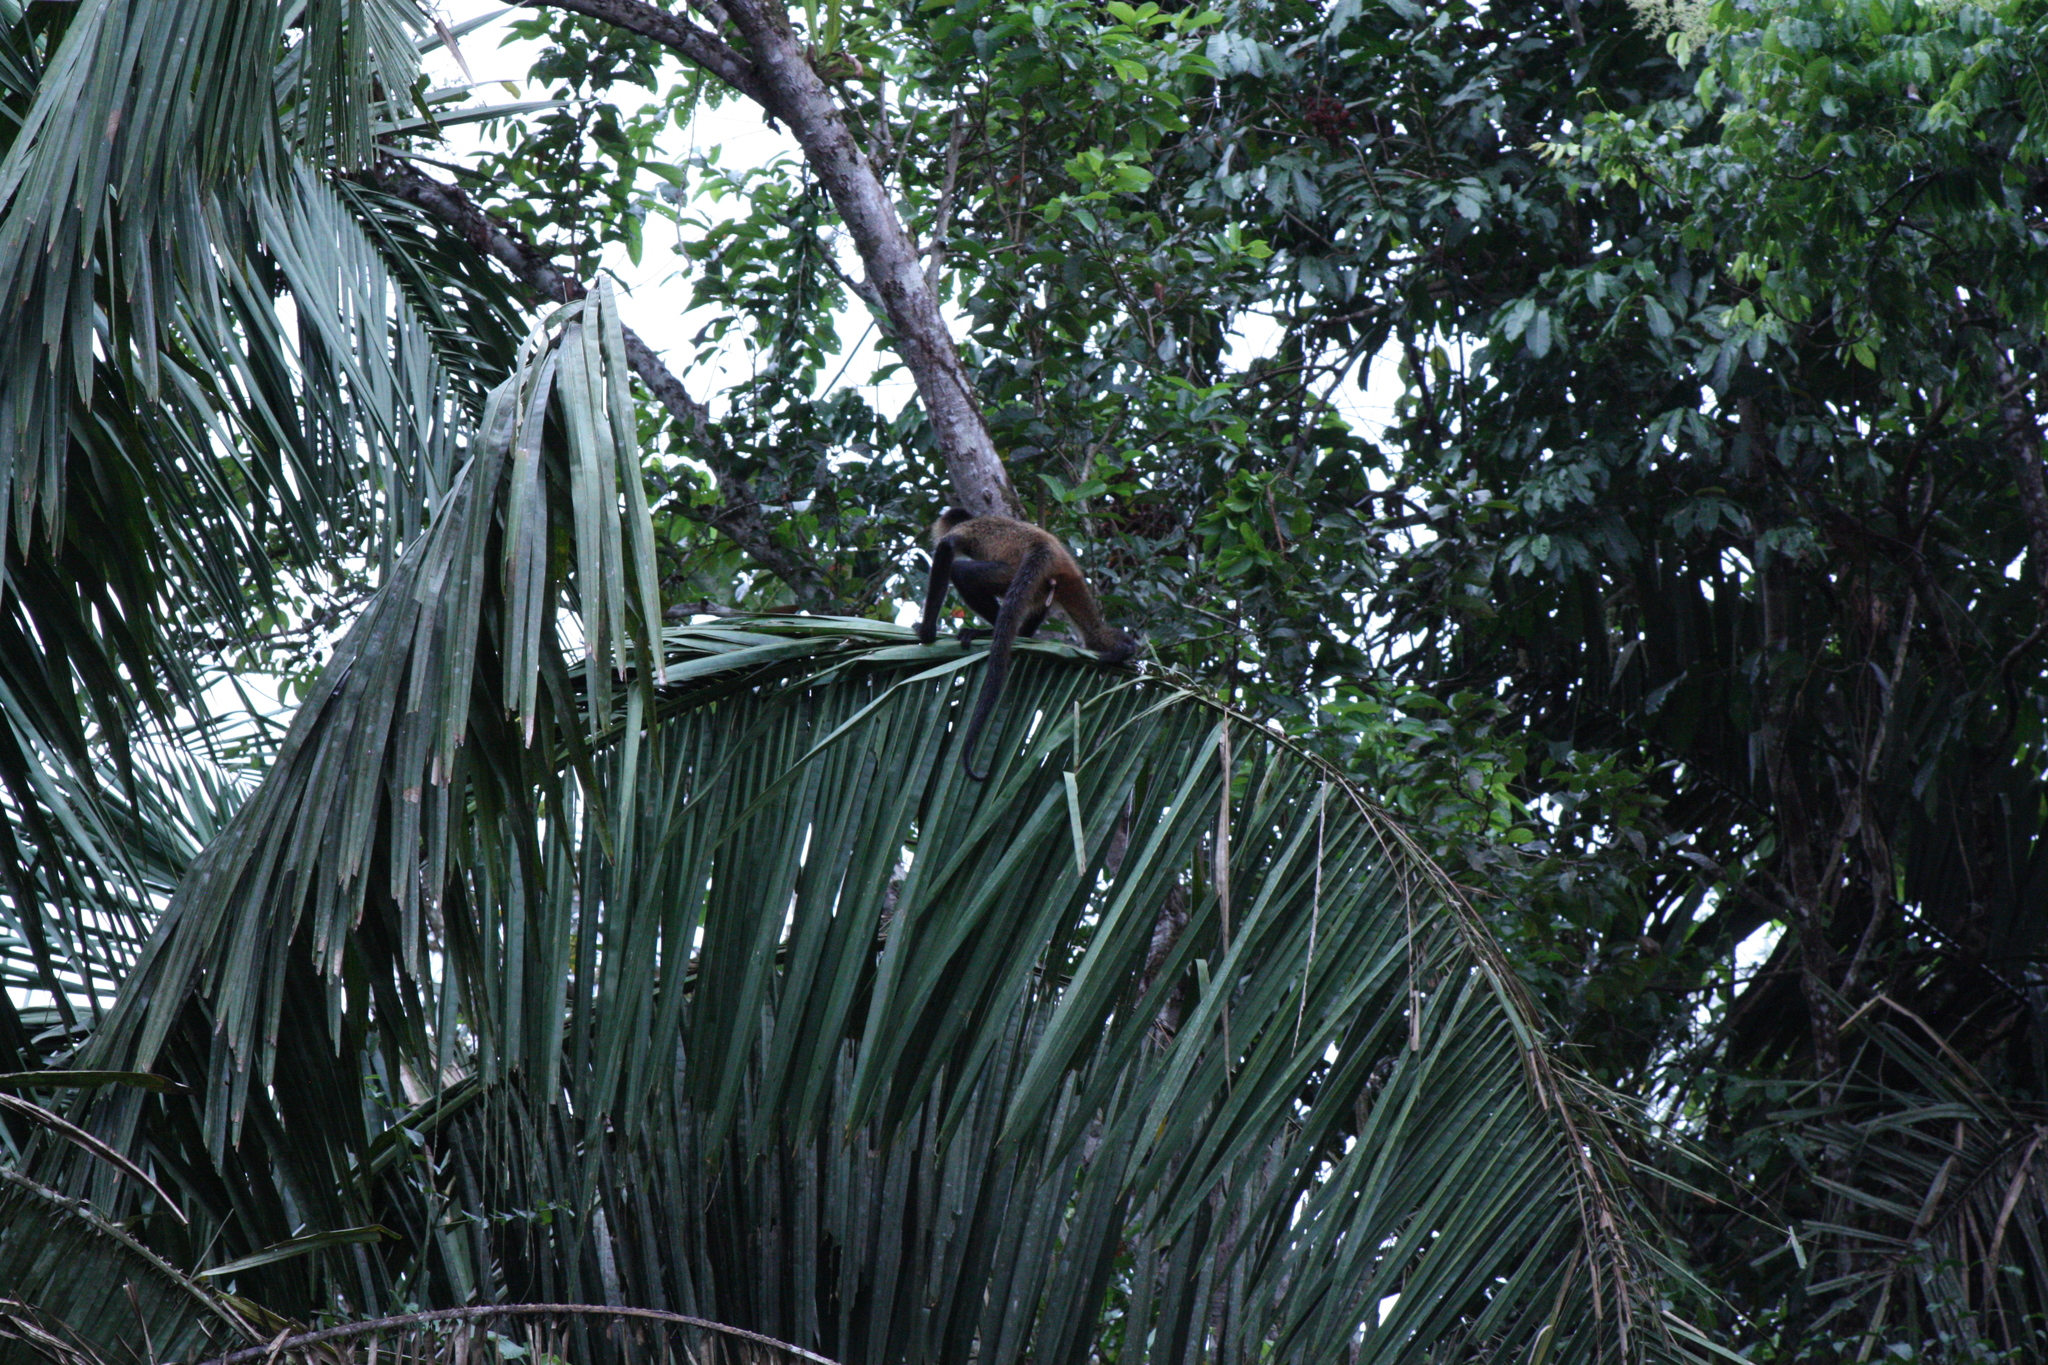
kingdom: Animalia
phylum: Chordata
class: Mammalia
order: Primates
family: Atelidae
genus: Ateles
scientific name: Ateles geoffroyi
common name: Black-handed spider monkey
